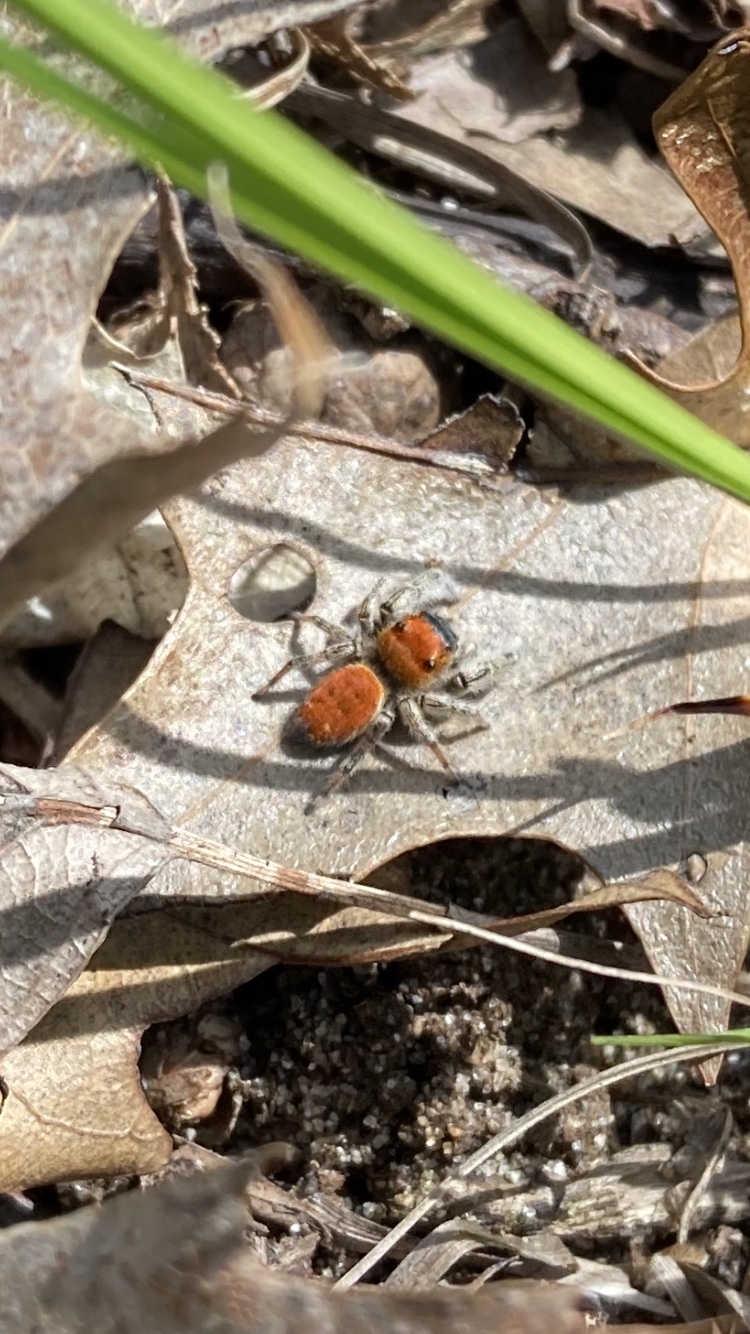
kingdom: Animalia
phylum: Arthropoda
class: Arachnida
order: Araneae
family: Salticidae
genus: Phidippus
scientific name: Phidippus whitmani
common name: Whitman's jumping spider
